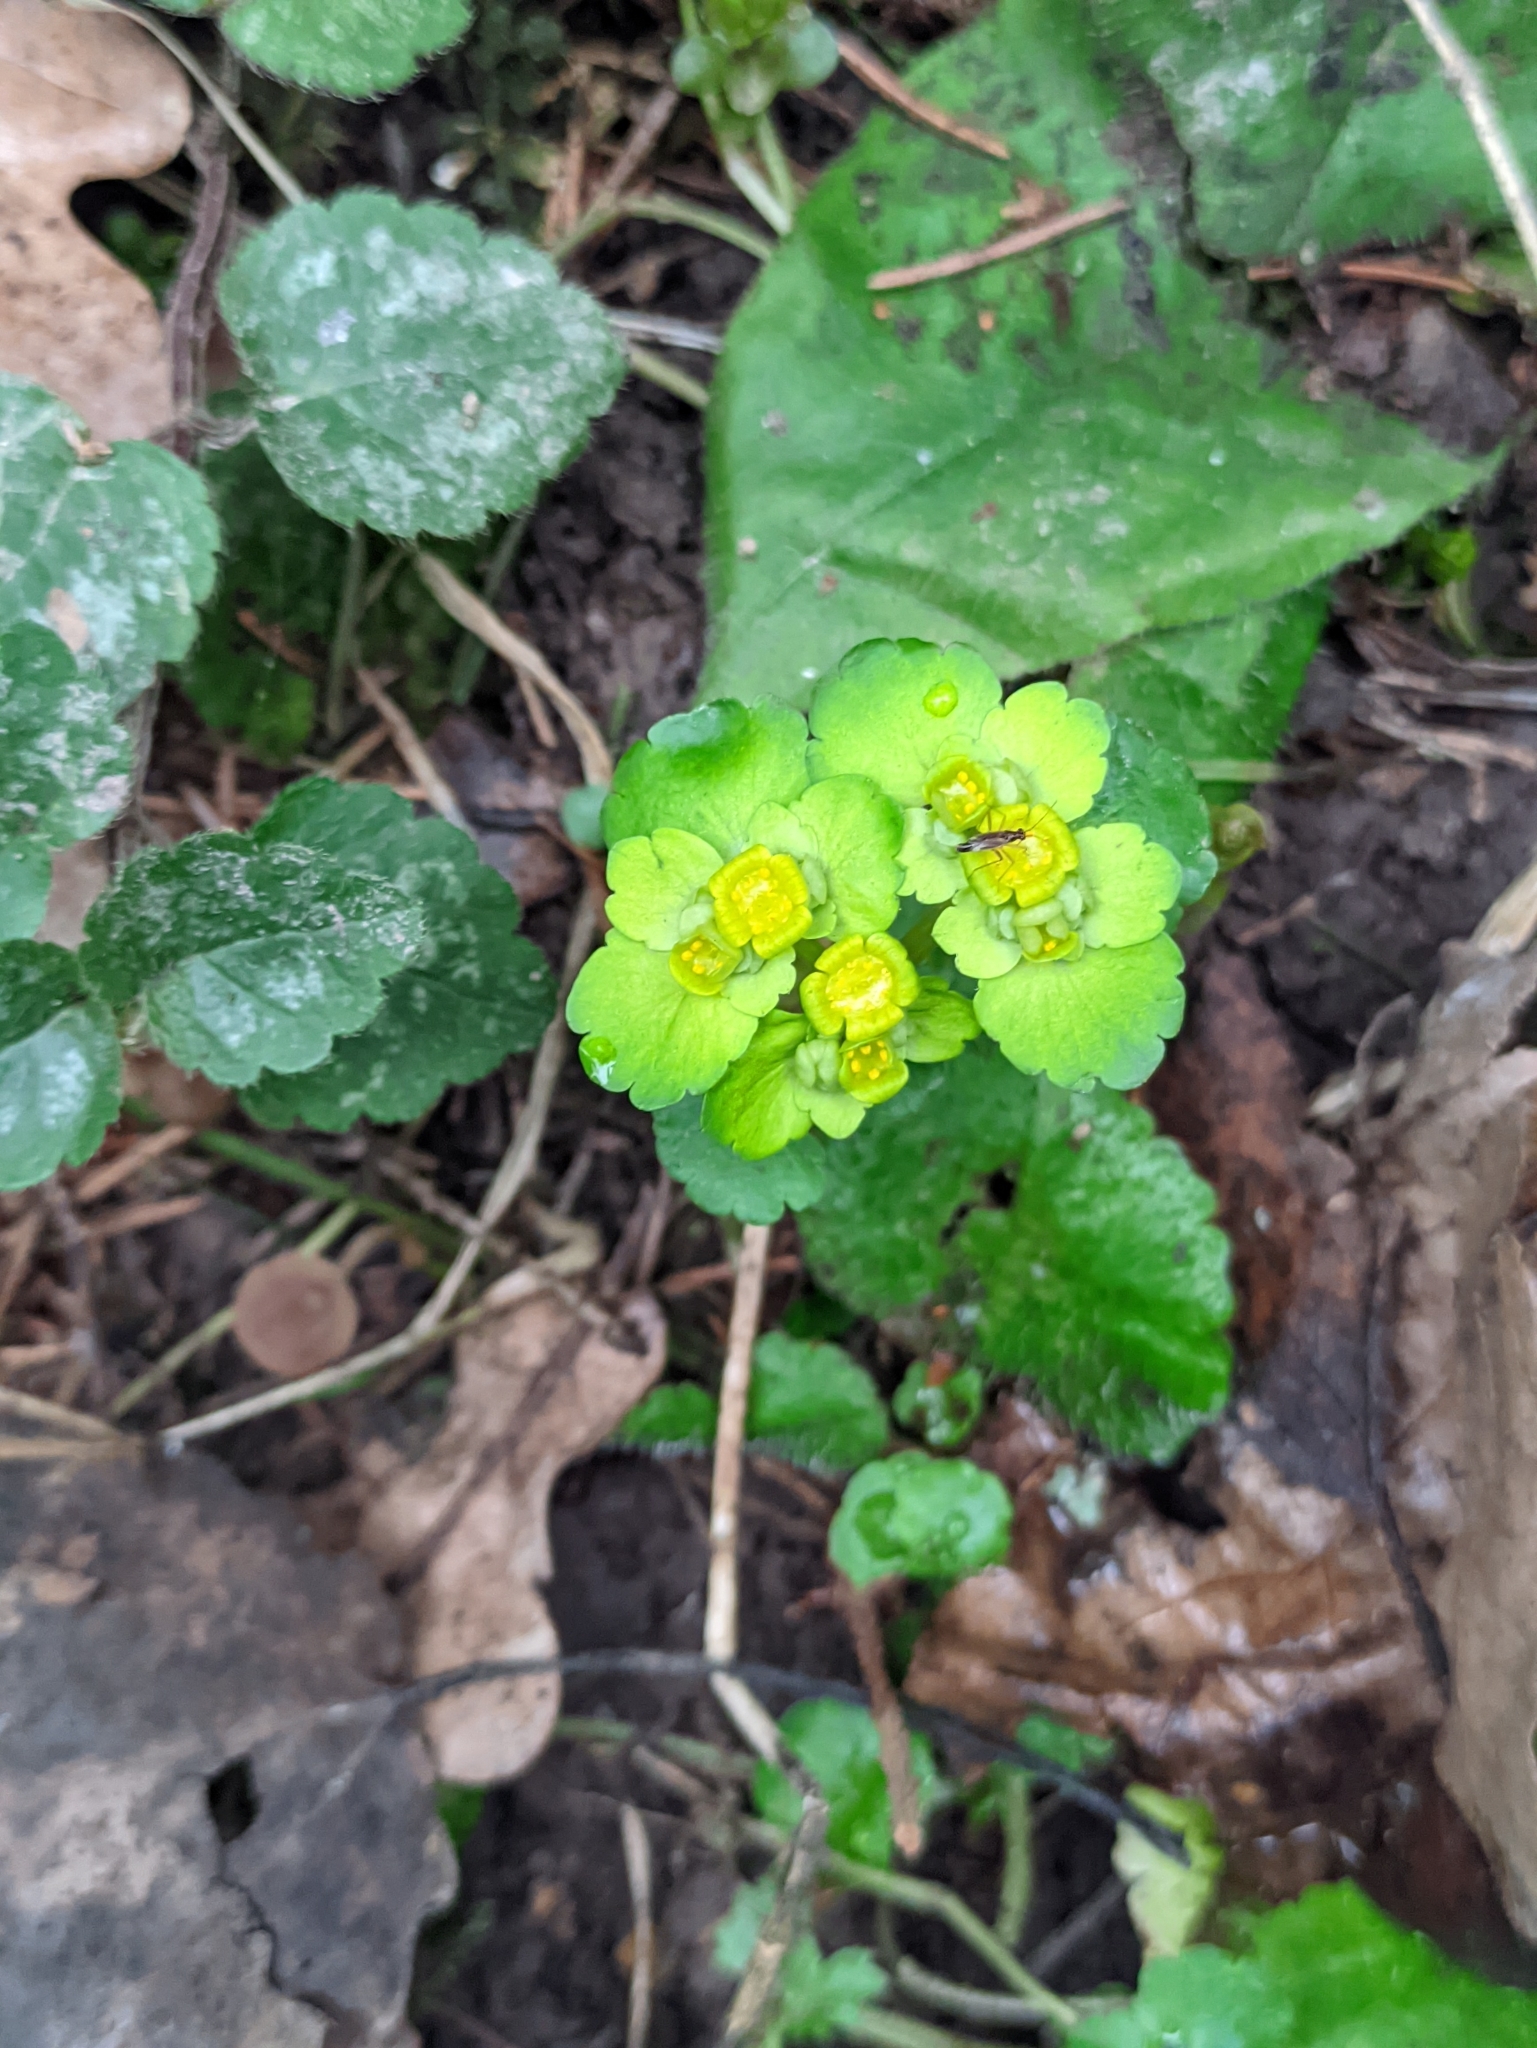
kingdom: Plantae
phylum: Tracheophyta
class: Magnoliopsida
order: Saxifragales
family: Saxifragaceae
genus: Chrysosplenium
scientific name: Chrysosplenium alternifolium
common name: Alternate-leaved golden-saxifrage
